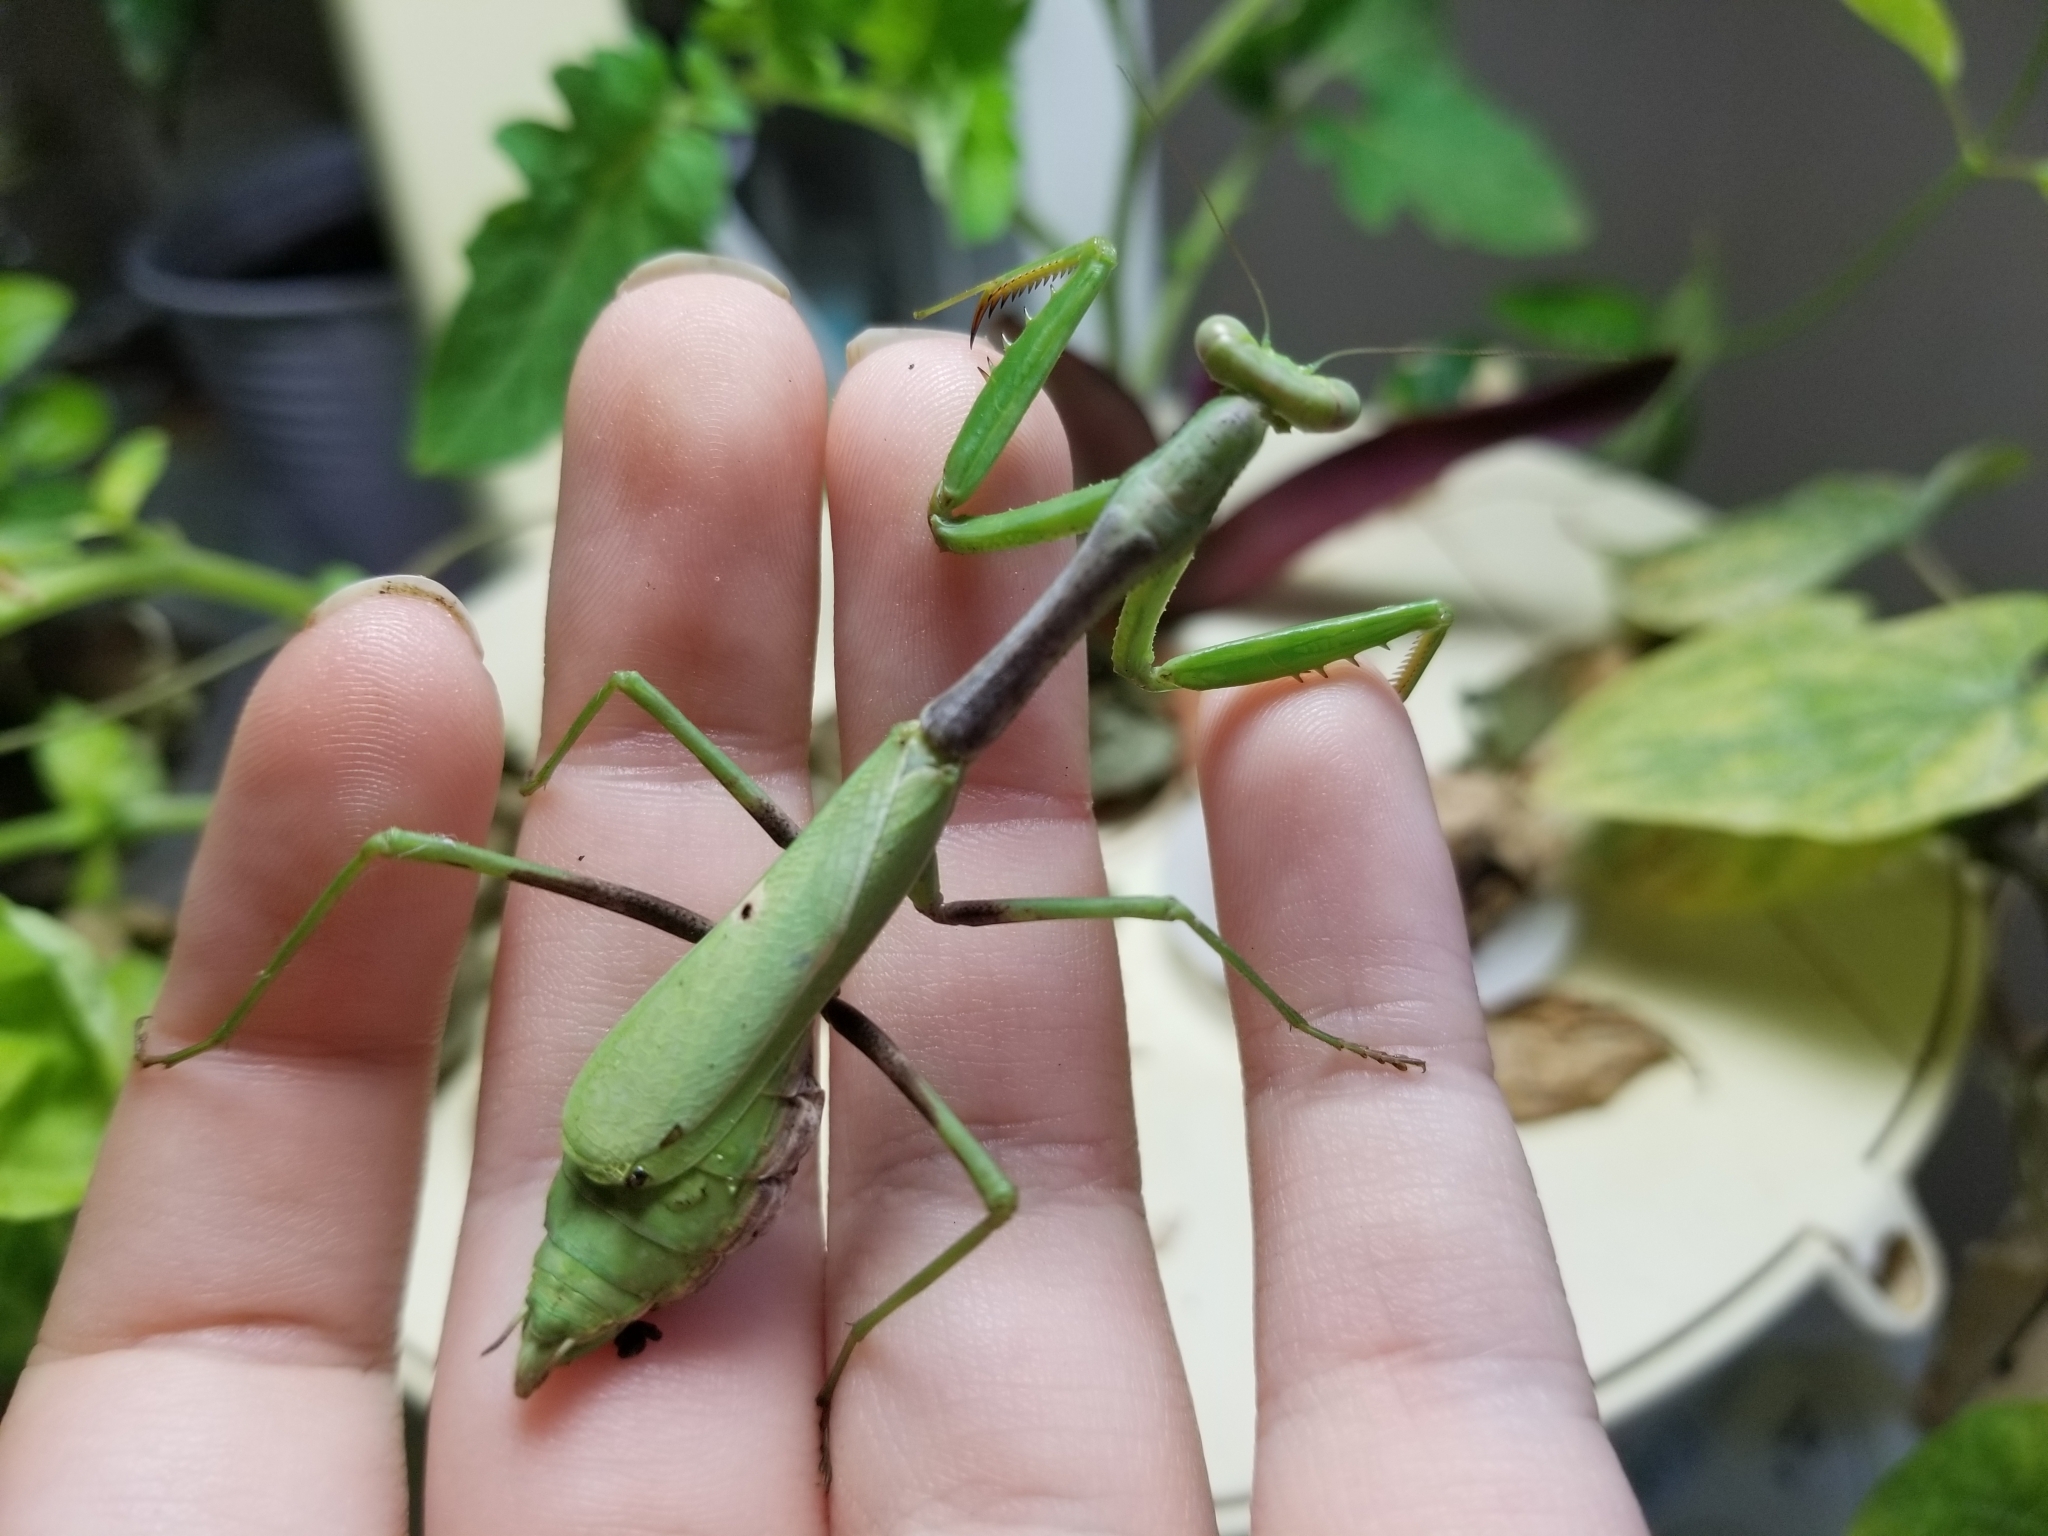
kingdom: Animalia
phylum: Arthropoda
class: Insecta
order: Mantodea
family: Mantidae
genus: Stagmomantis
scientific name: Stagmomantis carolina
